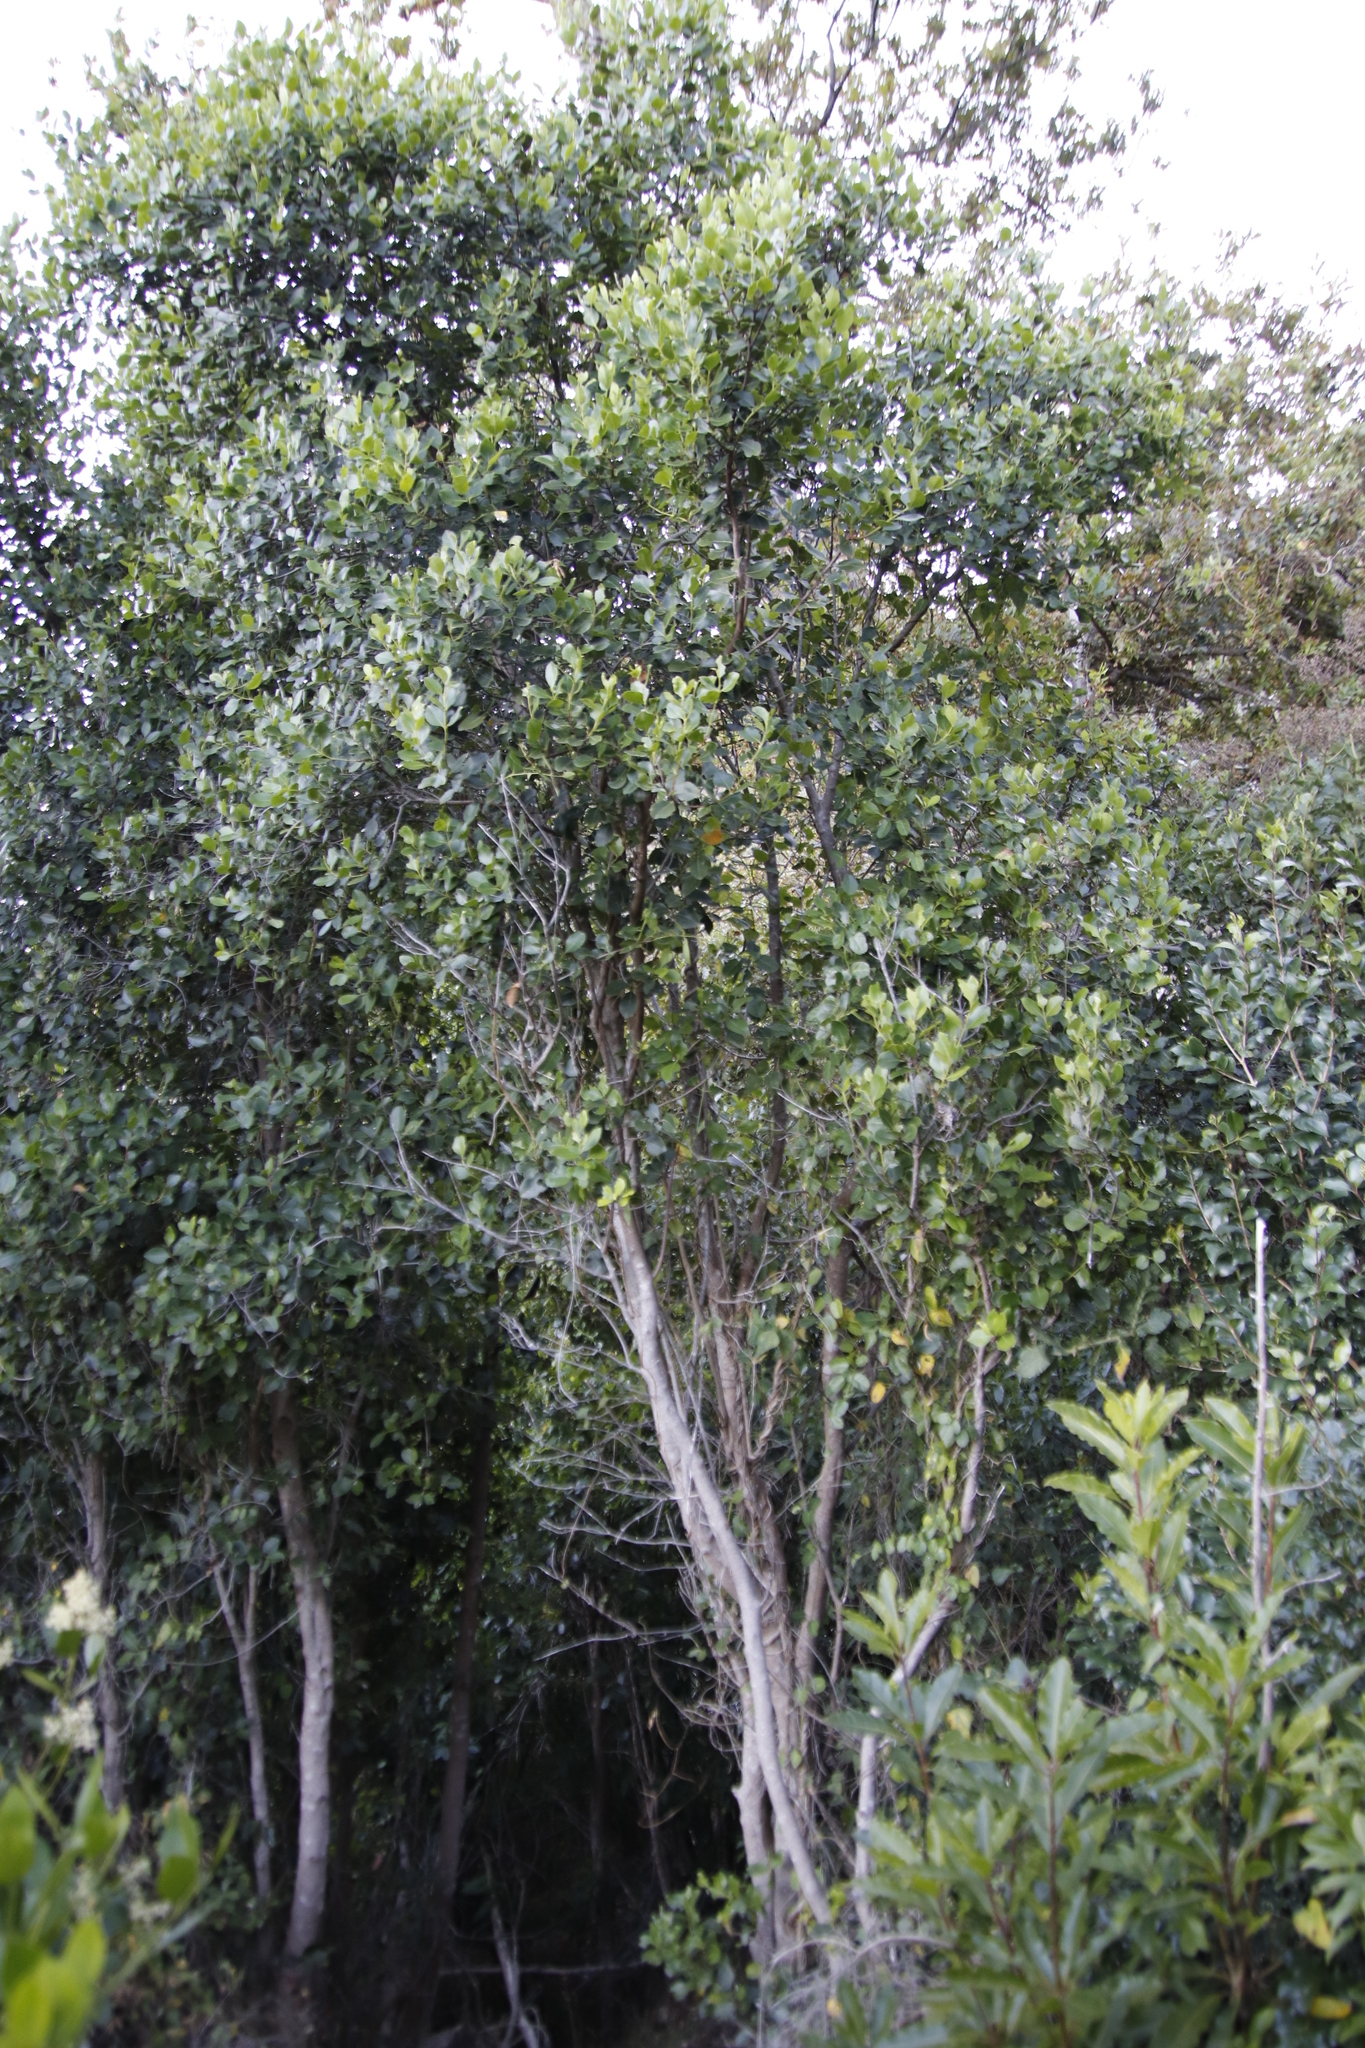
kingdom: Plantae
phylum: Tracheophyta
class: Magnoliopsida
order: Celastrales
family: Celastraceae
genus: Cassine
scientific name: Cassine peragua
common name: Cape saffron
